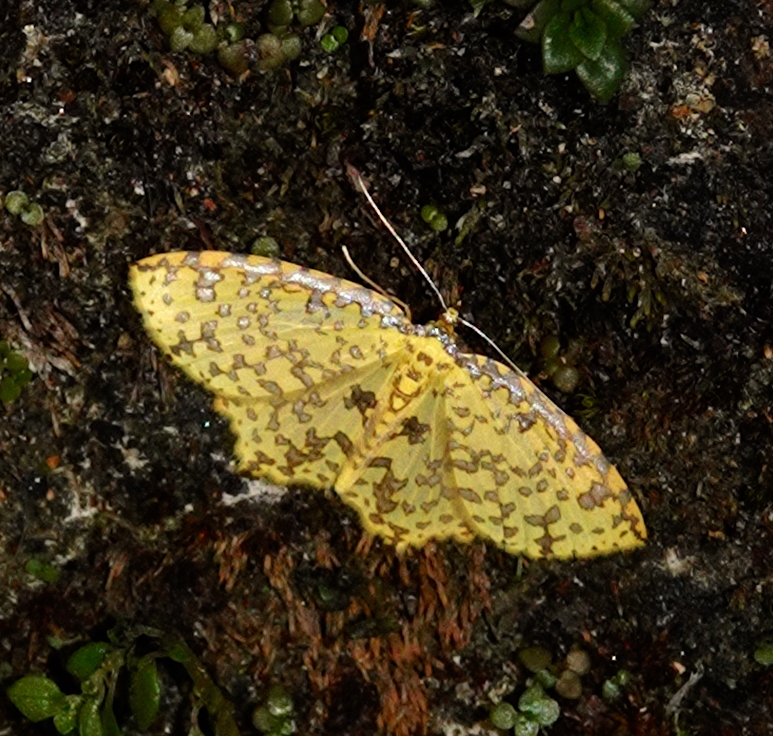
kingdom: Animalia
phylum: Arthropoda
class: Insecta
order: Lepidoptera
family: Geometridae
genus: Polynesia
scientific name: Polynesia sunandava
